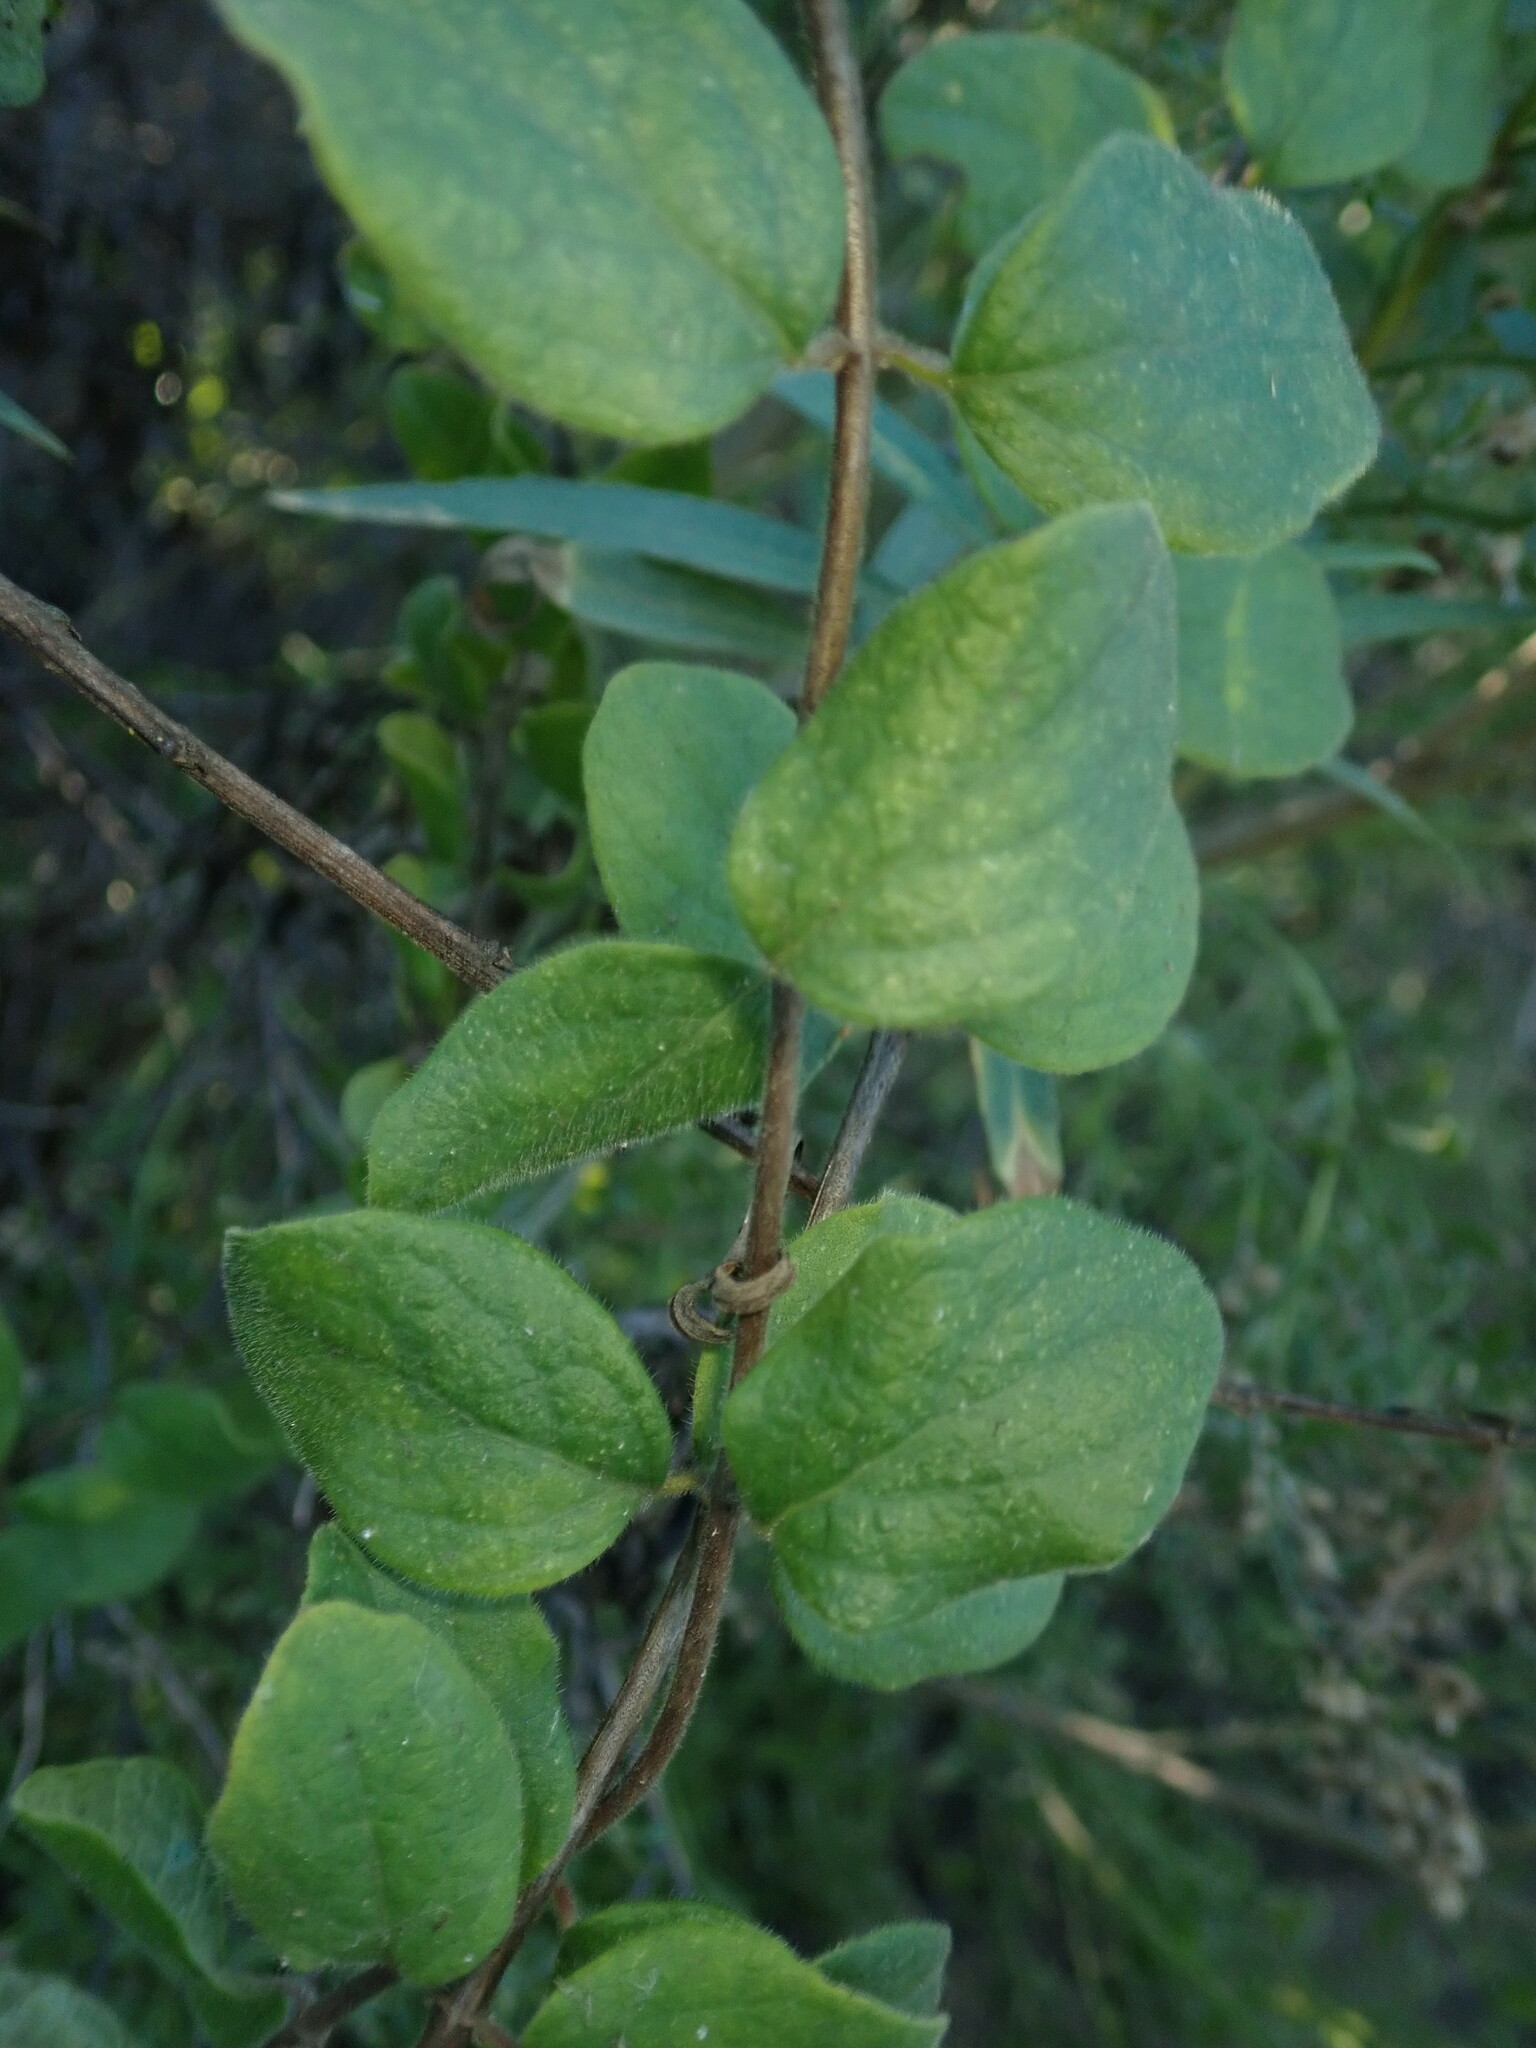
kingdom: Plantae
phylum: Tracheophyta
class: Magnoliopsida
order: Dipsacales
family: Caprifoliaceae
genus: Lonicera
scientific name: Lonicera subspicata
